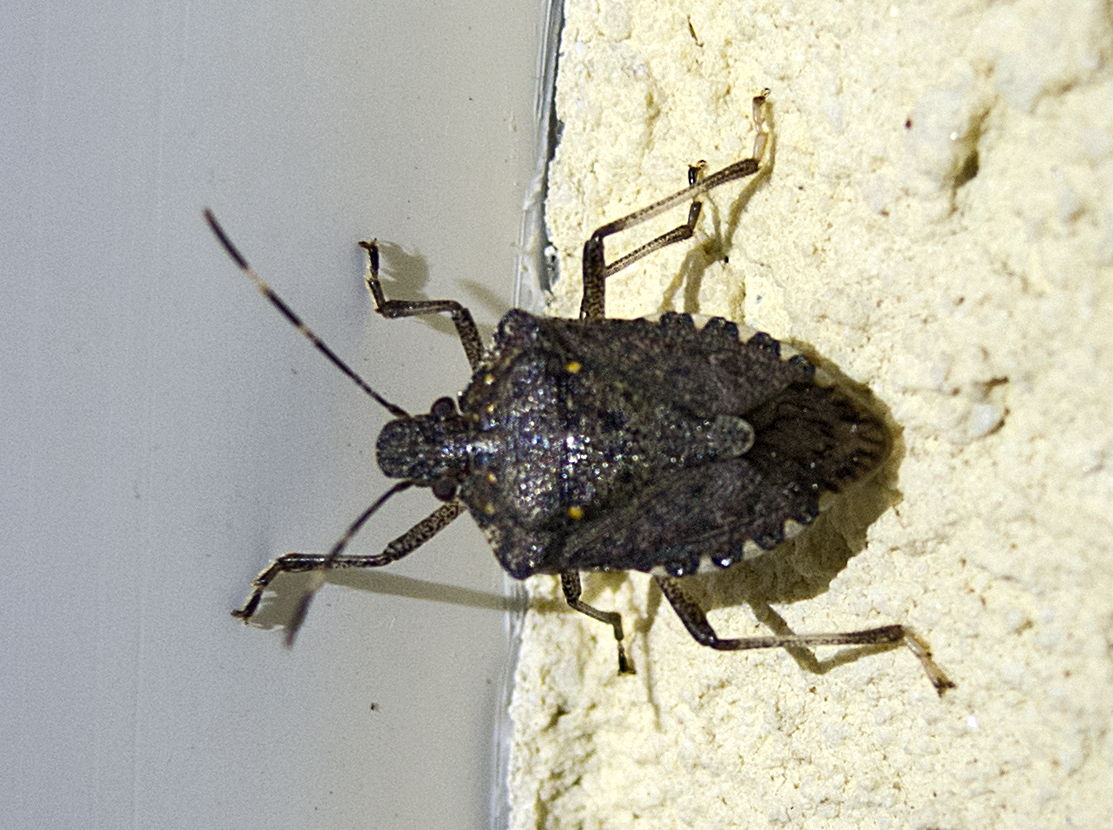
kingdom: Animalia
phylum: Arthropoda
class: Insecta
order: Hemiptera
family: Pentatomidae
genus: Halyomorpha
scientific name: Halyomorpha halys
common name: Brown marmorated stink bug
